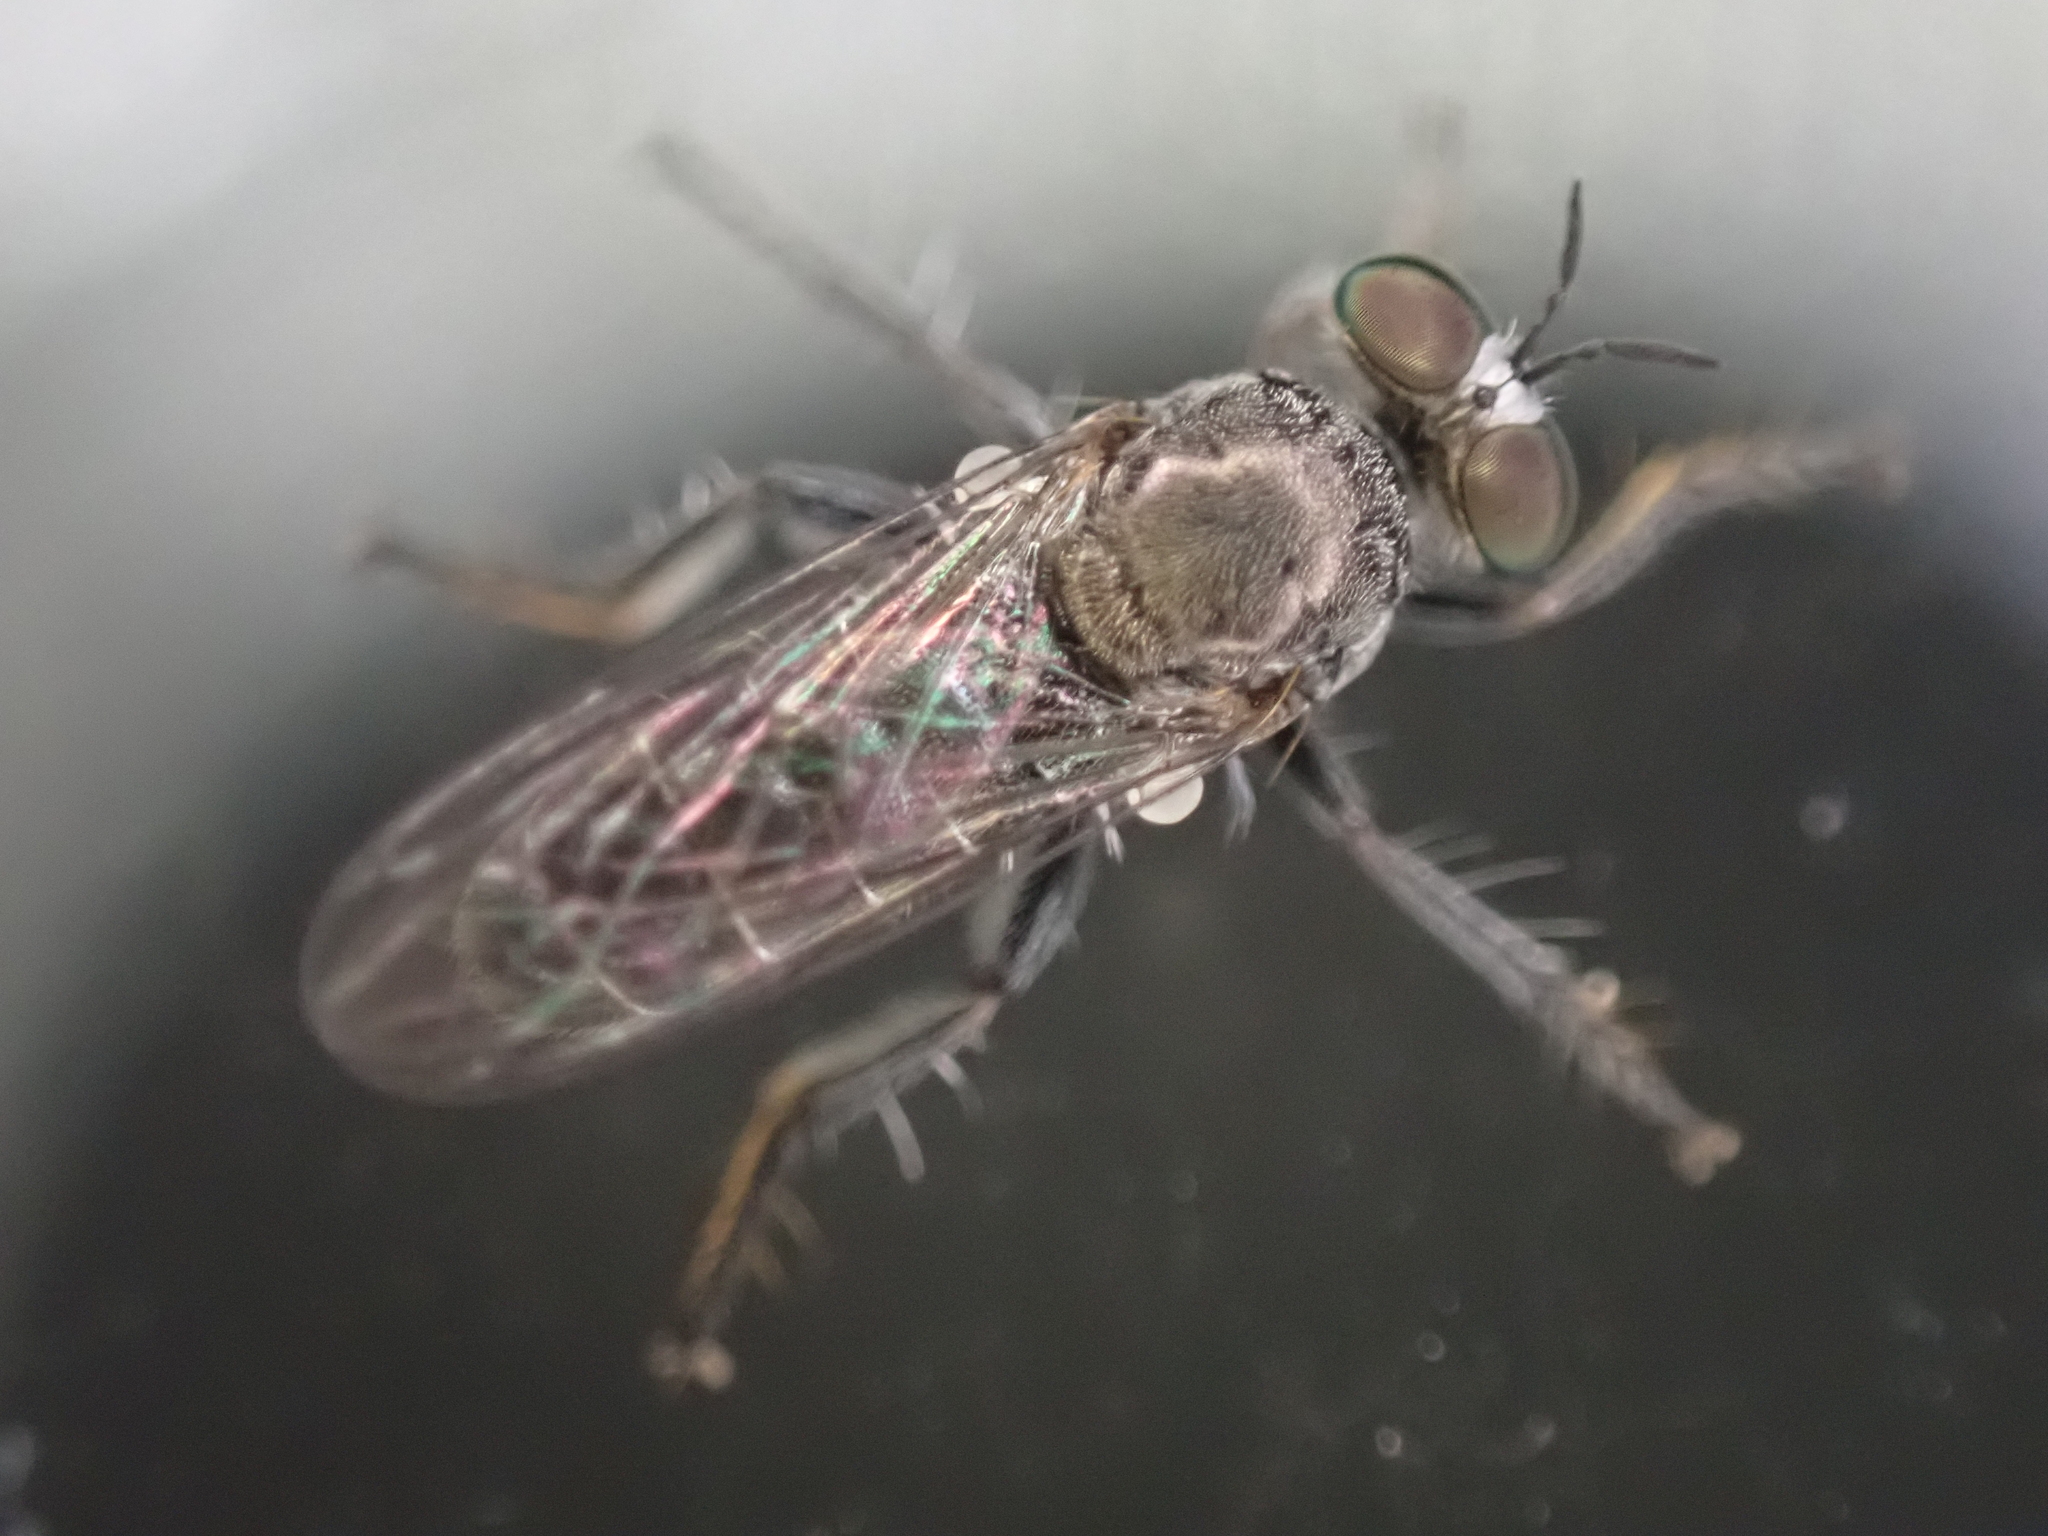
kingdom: Animalia
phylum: Arthropoda
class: Insecta
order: Diptera
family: Asilidae
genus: Atomosia
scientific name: Atomosia puella
